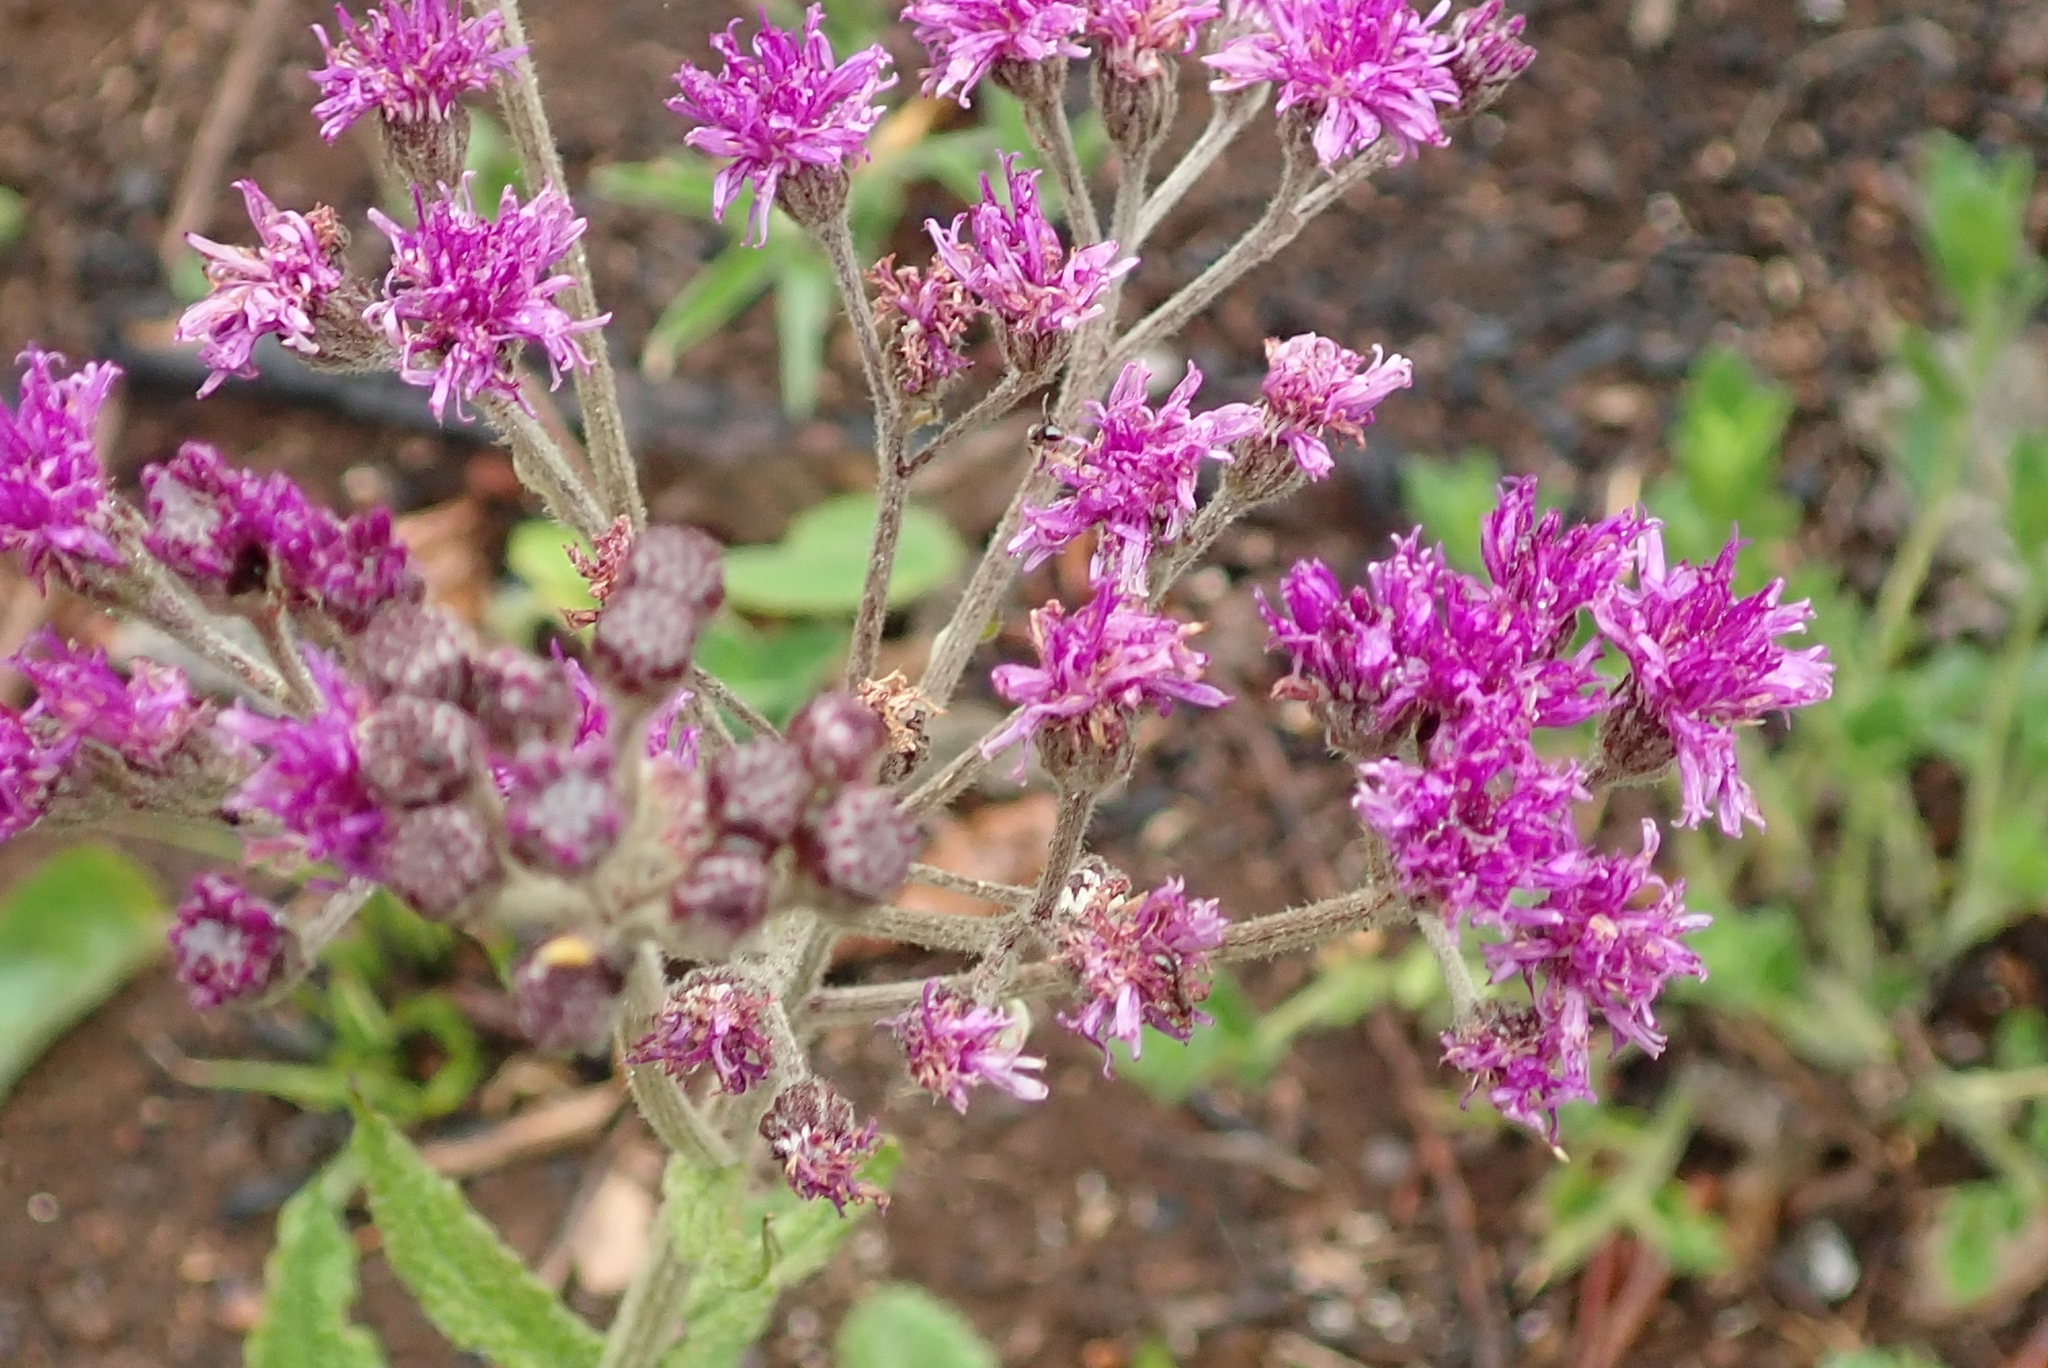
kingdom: Plantae
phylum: Tracheophyta
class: Magnoliopsida
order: Asterales
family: Asteraceae
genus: Hilliardiella
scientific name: Hilliardiella hirsuta
